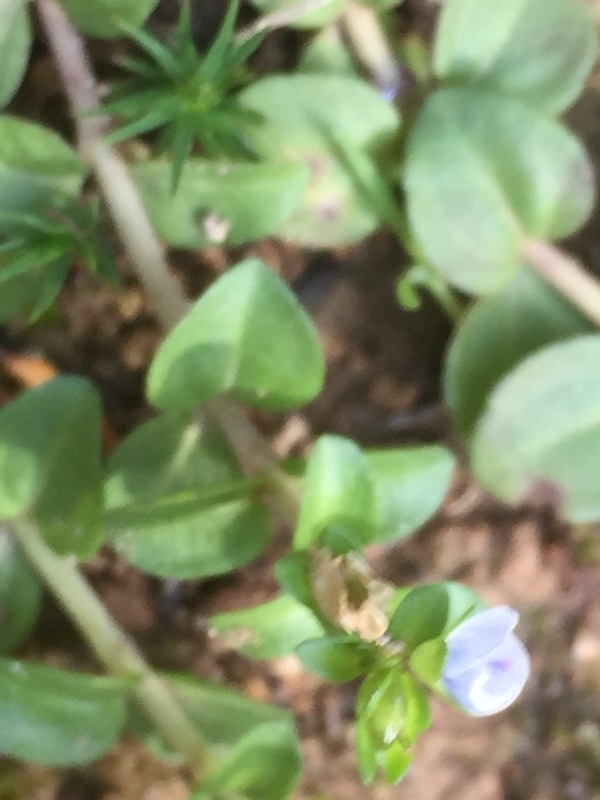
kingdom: Plantae
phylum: Tracheophyta
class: Magnoliopsida
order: Lamiales
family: Plantaginaceae
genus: Veronica
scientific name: Veronica serpyllifolia
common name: Thyme-leaved speedwell
